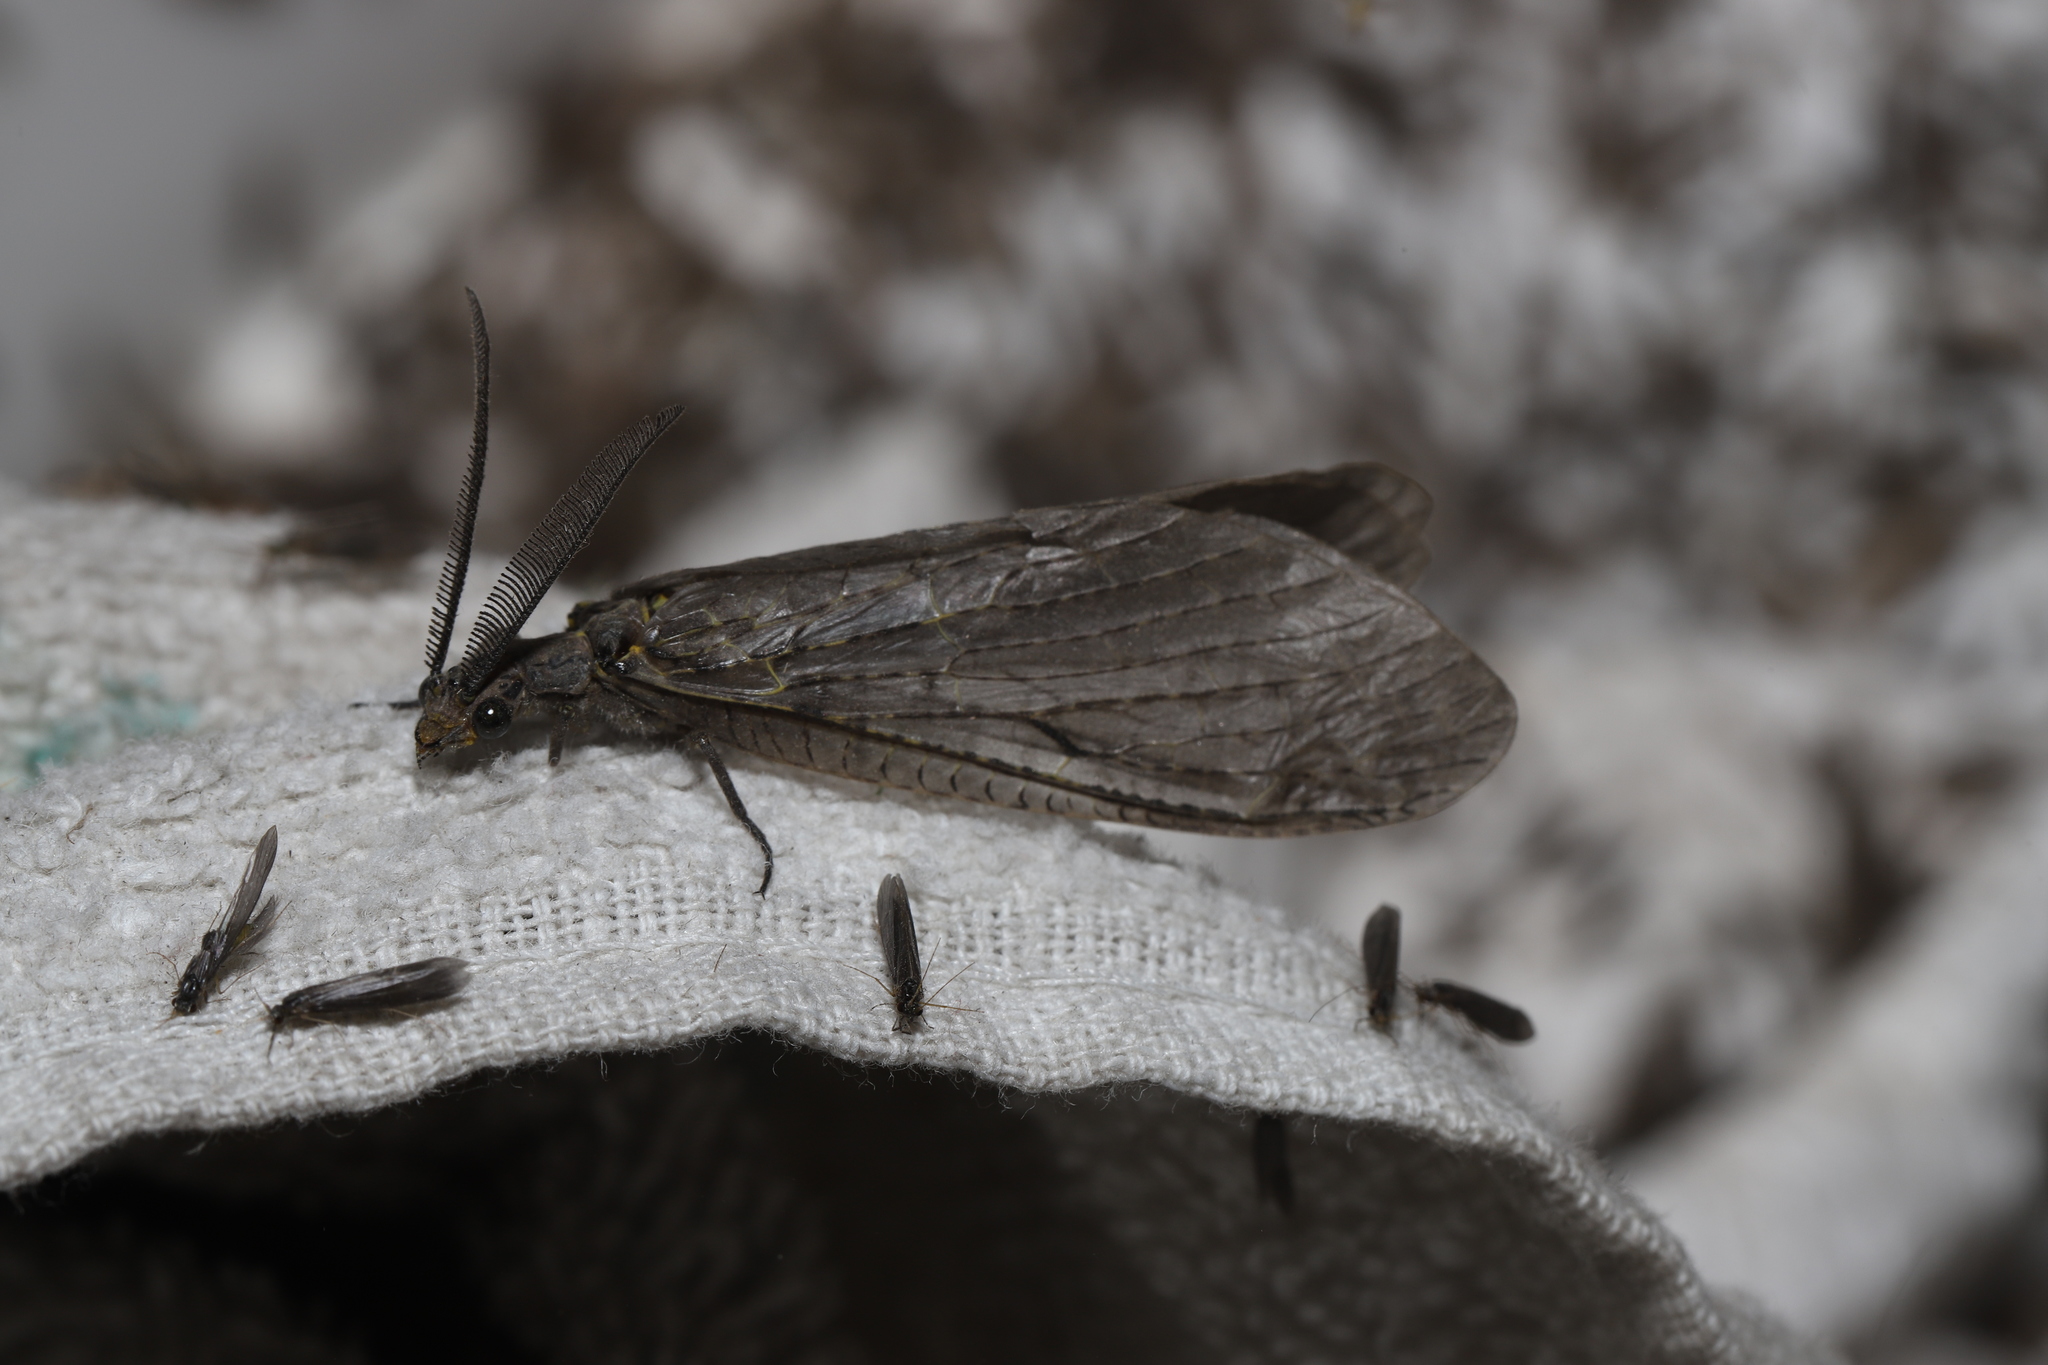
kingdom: Animalia
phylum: Arthropoda
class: Insecta
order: Megaloptera
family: Corydalidae
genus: Chauliodes
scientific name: Chauliodes rastricornis
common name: Spring fishfly
